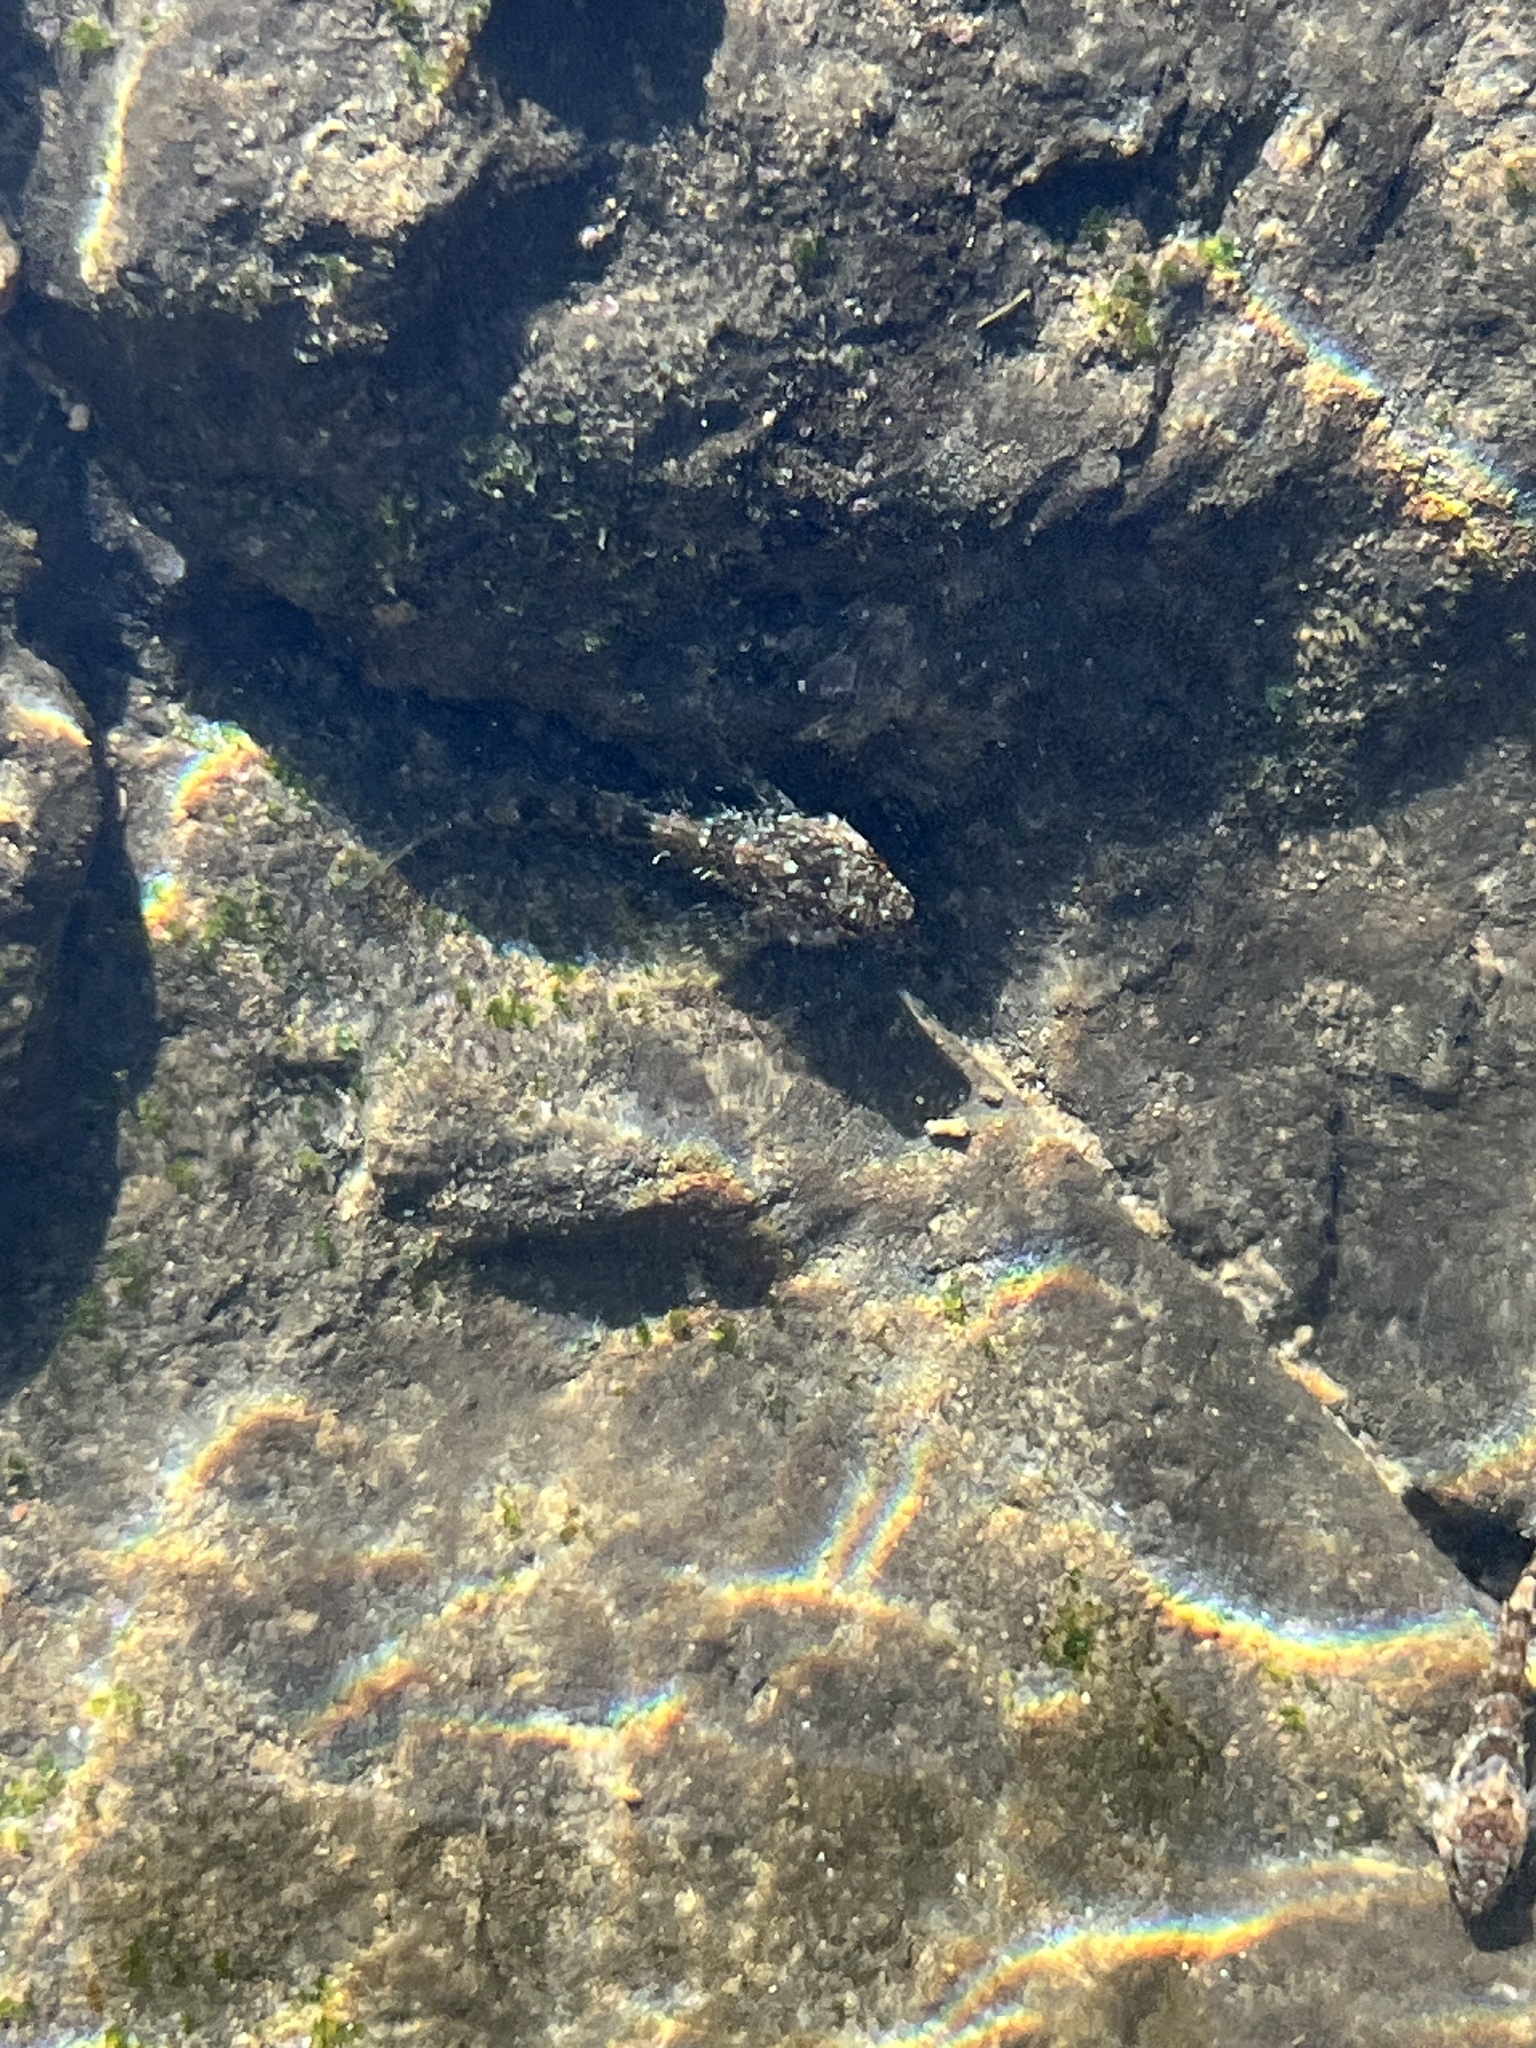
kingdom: Animalia
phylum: Chordata
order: Scorpaeniformes
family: Cottidae
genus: Clinocottus
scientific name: Clinocottus analis
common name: Woolly sculpin
